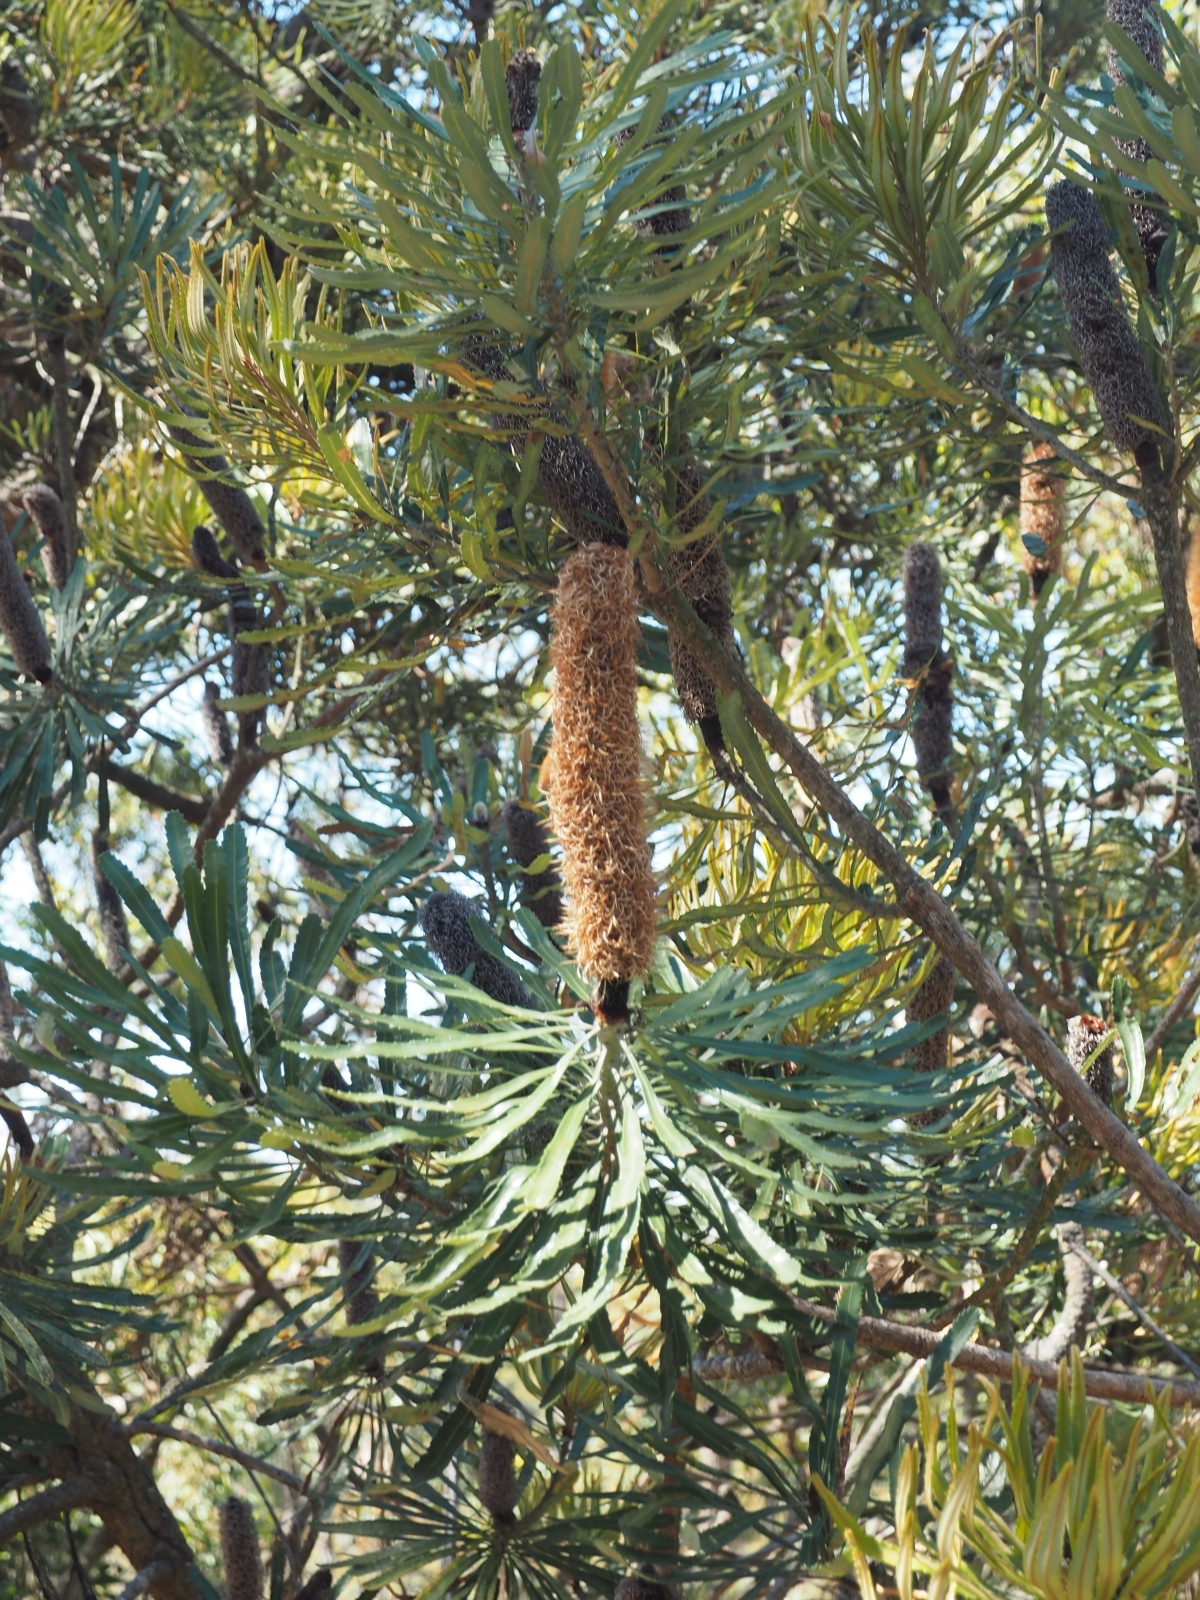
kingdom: Plantae
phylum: Tracheophyta
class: Magnoliopsida
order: Proteales
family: Proteaceae
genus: Banksia
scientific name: Banksia attenuata
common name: Coast banksia
